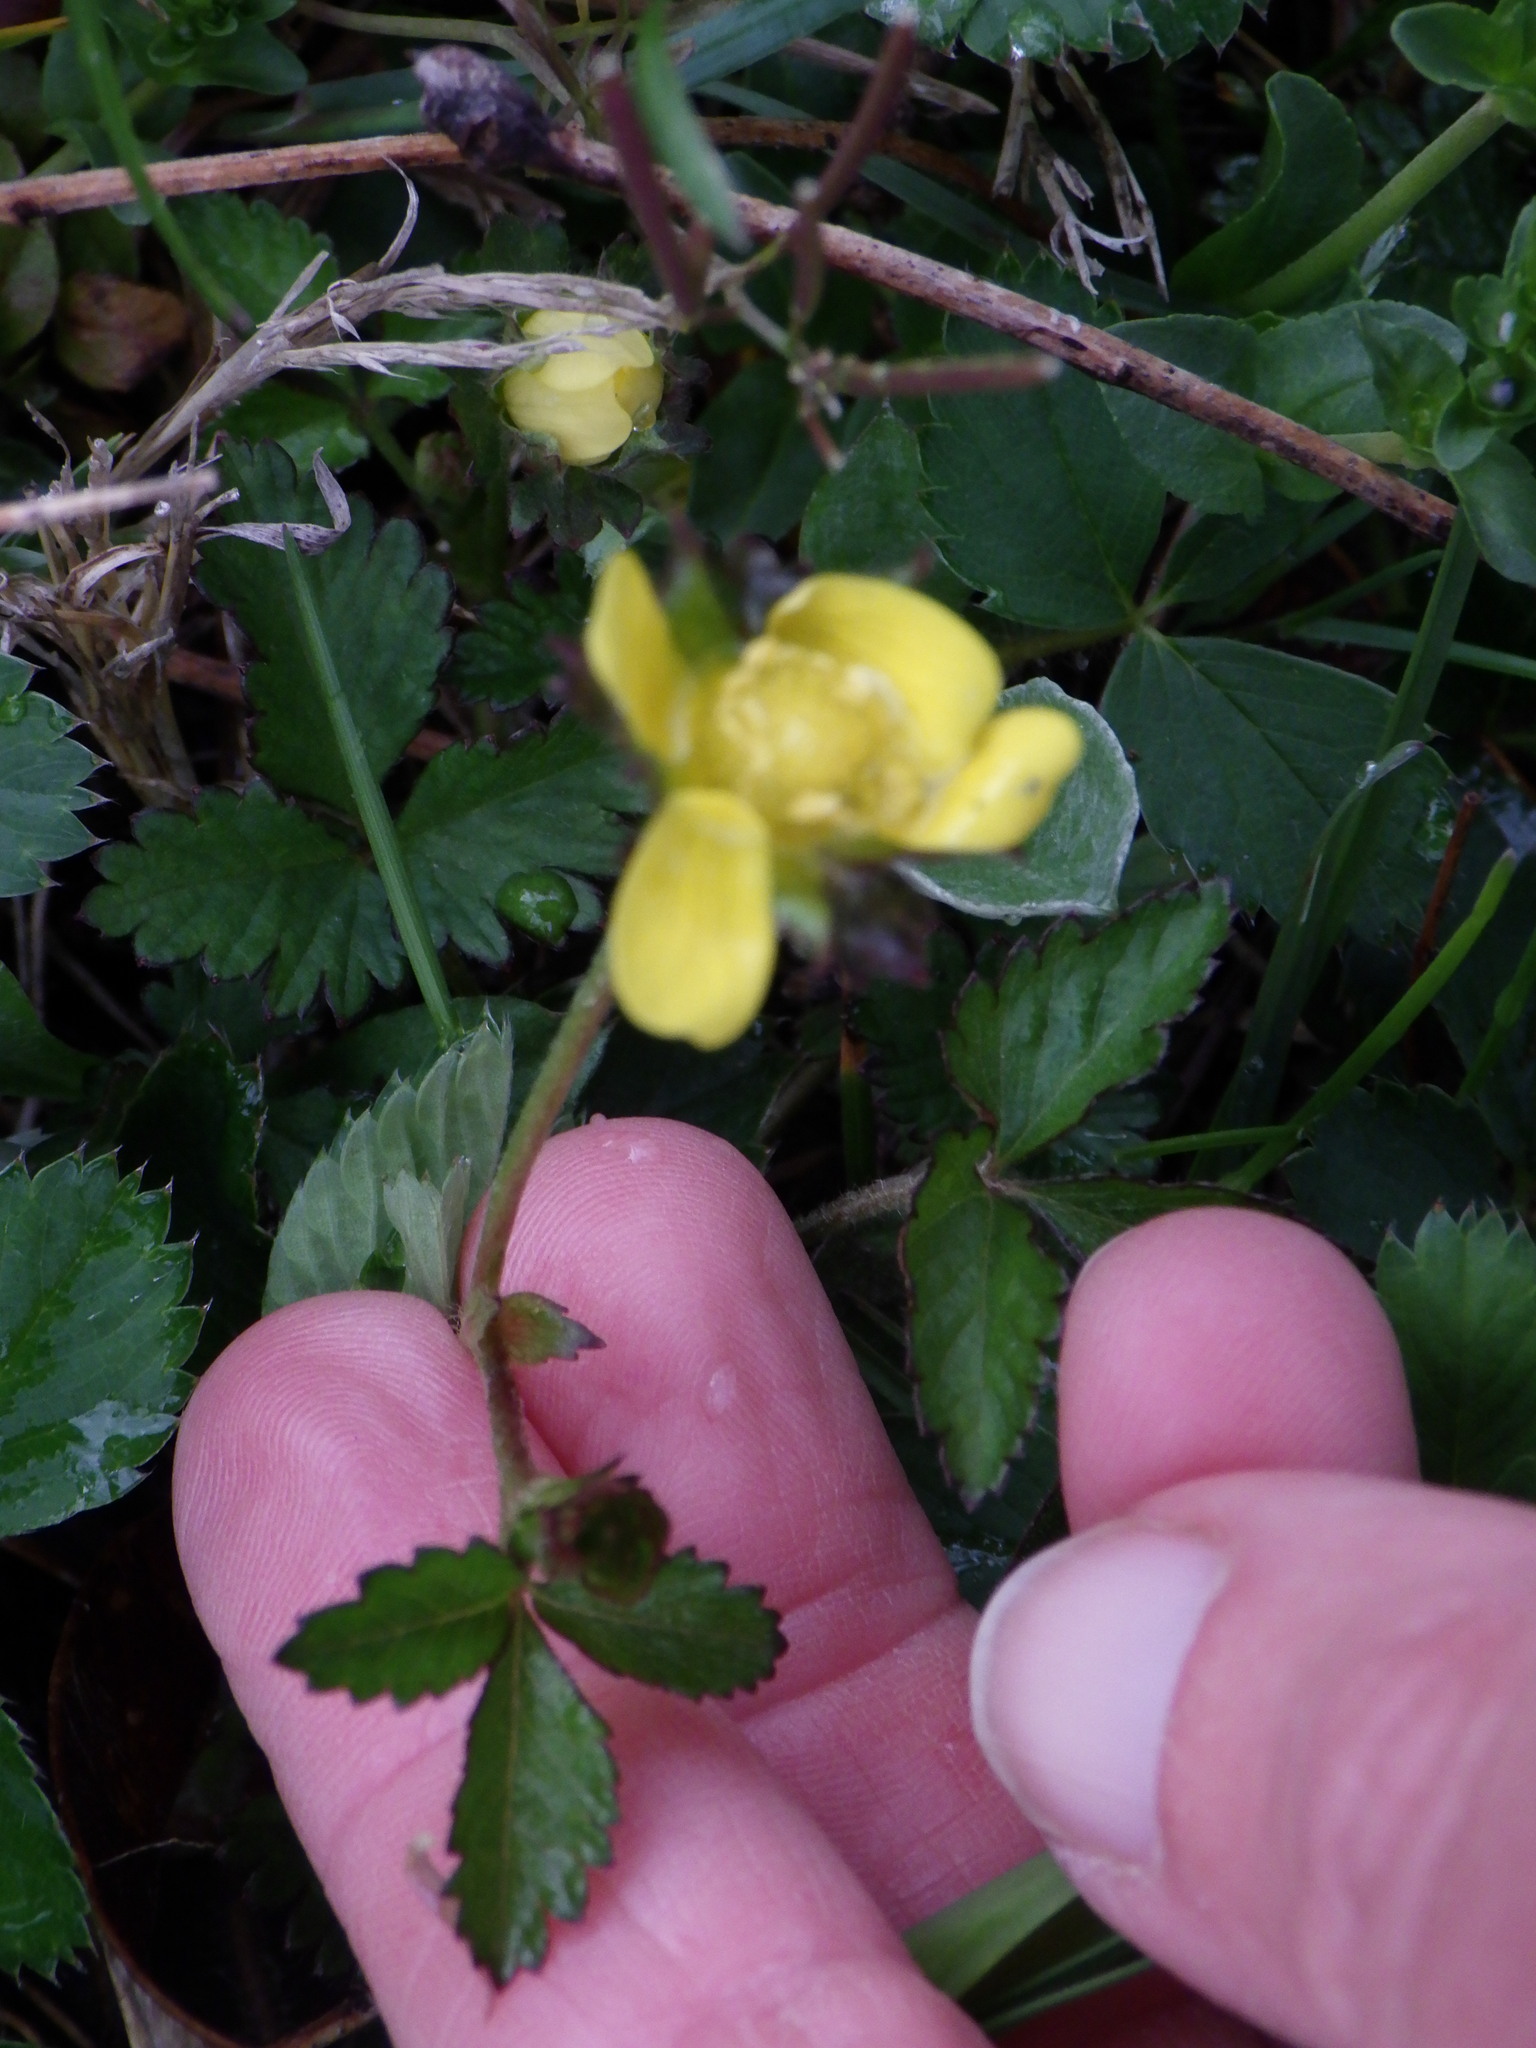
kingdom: Plantae
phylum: Tracheophyta
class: Magnoliopsida
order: Rosales
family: Rosaceae
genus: Potentilla
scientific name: Potentilla indica
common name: Yellow-flowered strawberry
